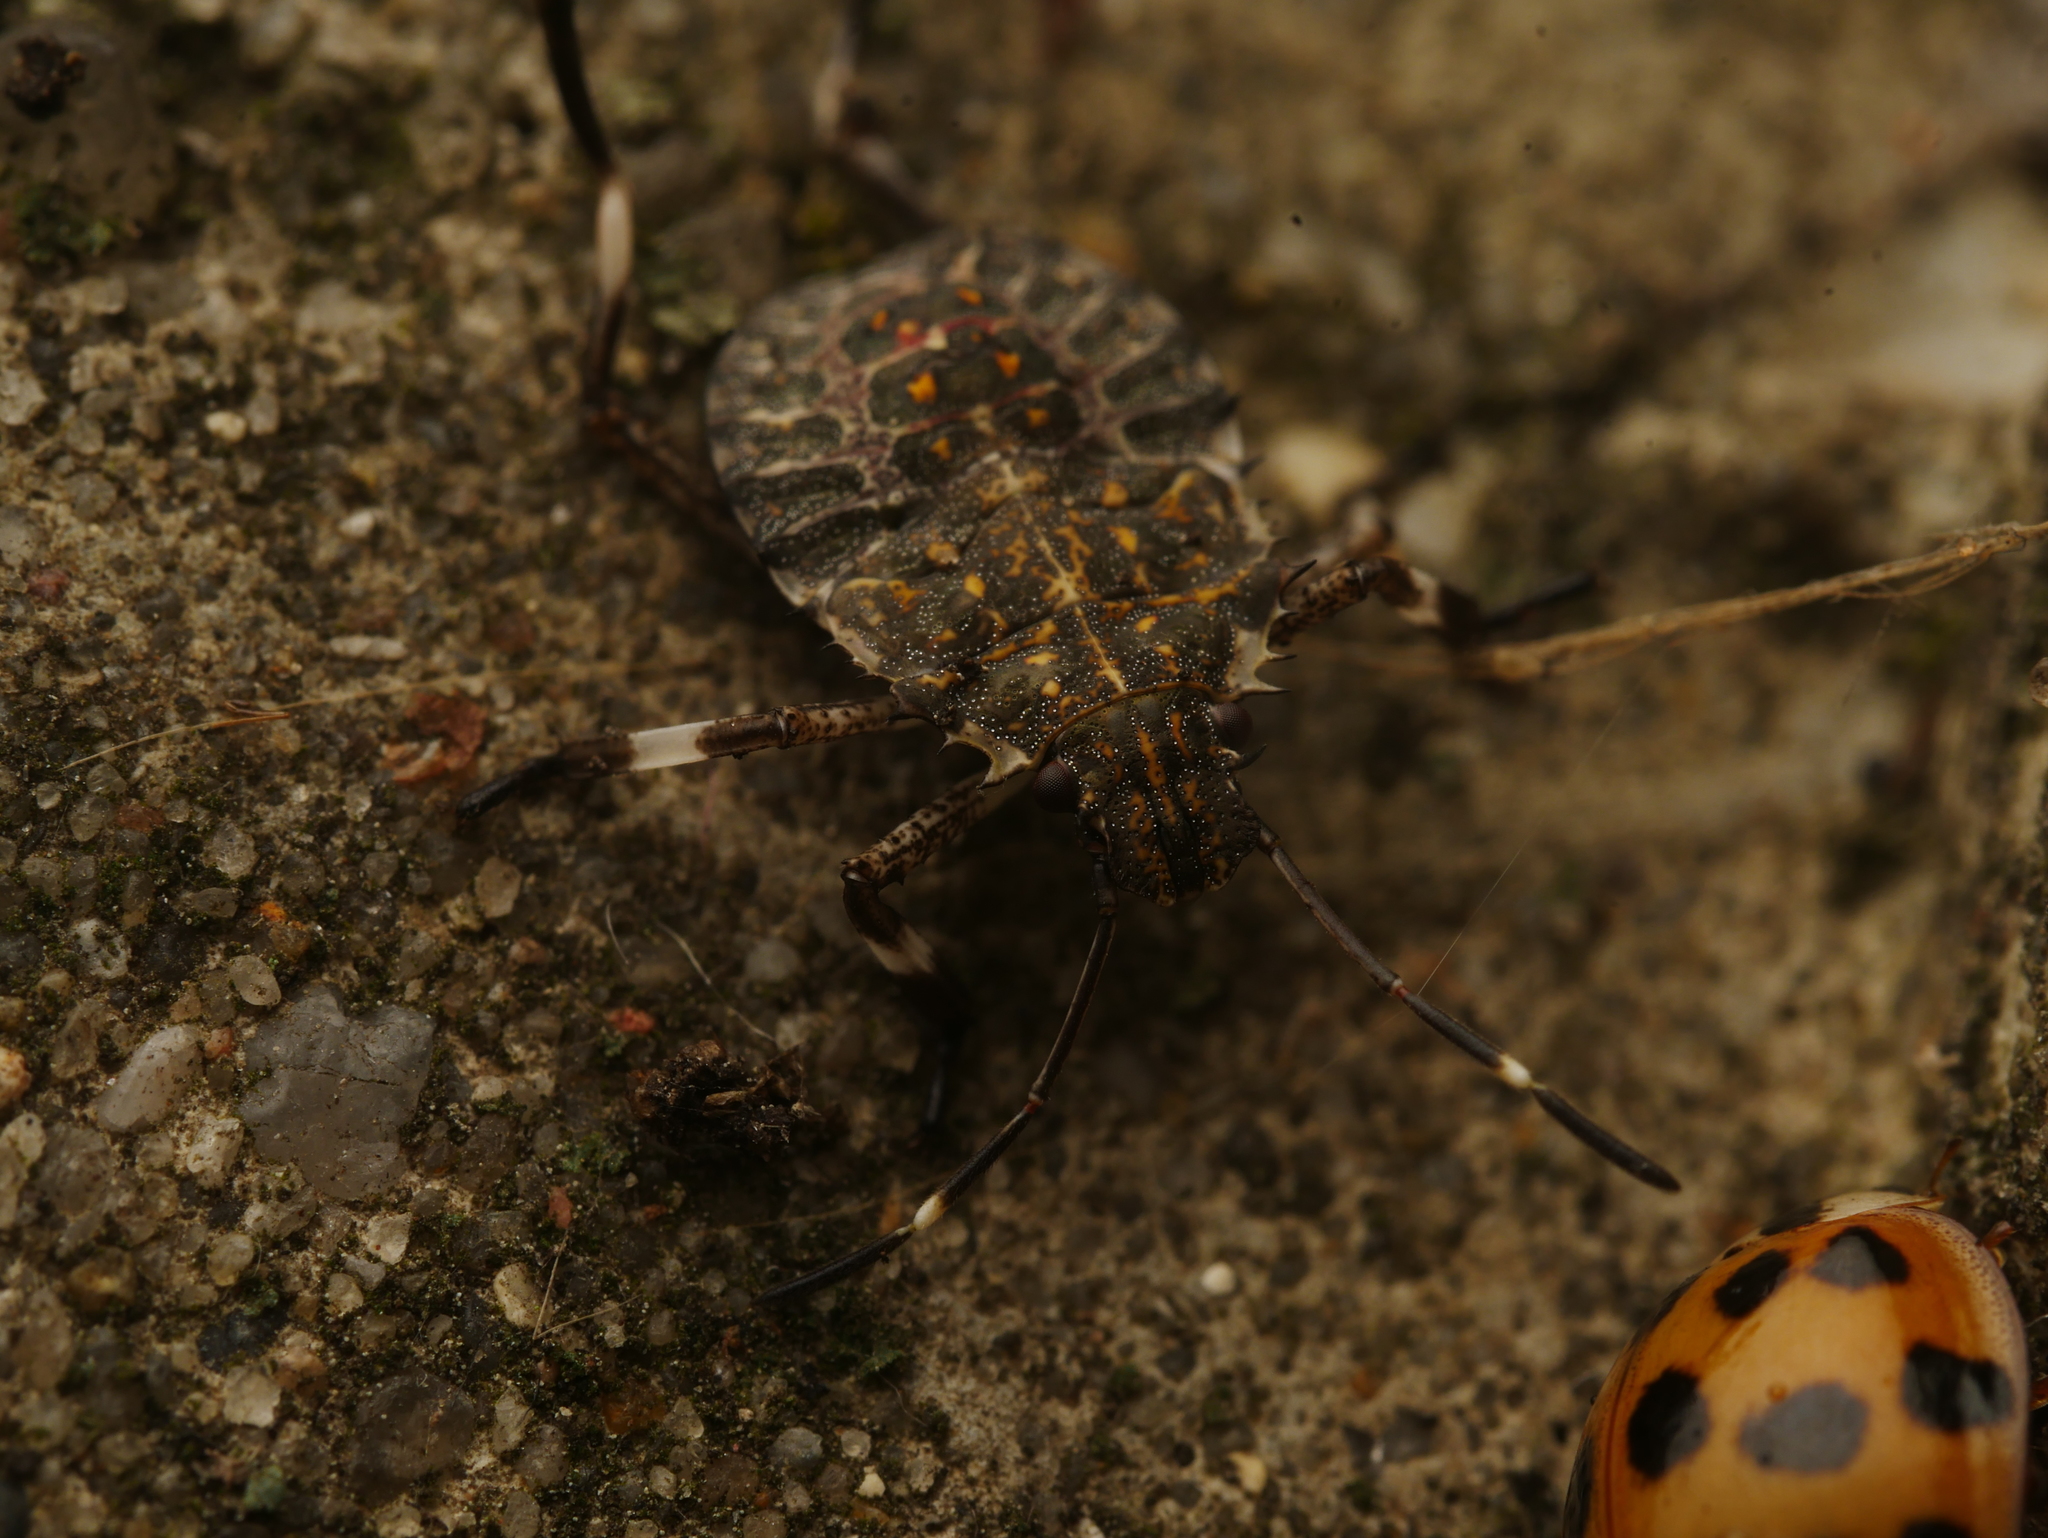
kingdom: Animalia
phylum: Arthropoda
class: Insecta
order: Hemiptera
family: Pentatomidae
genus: Halyomorpha
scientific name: Halyomorpha halys
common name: Brown marmorated stink bug
